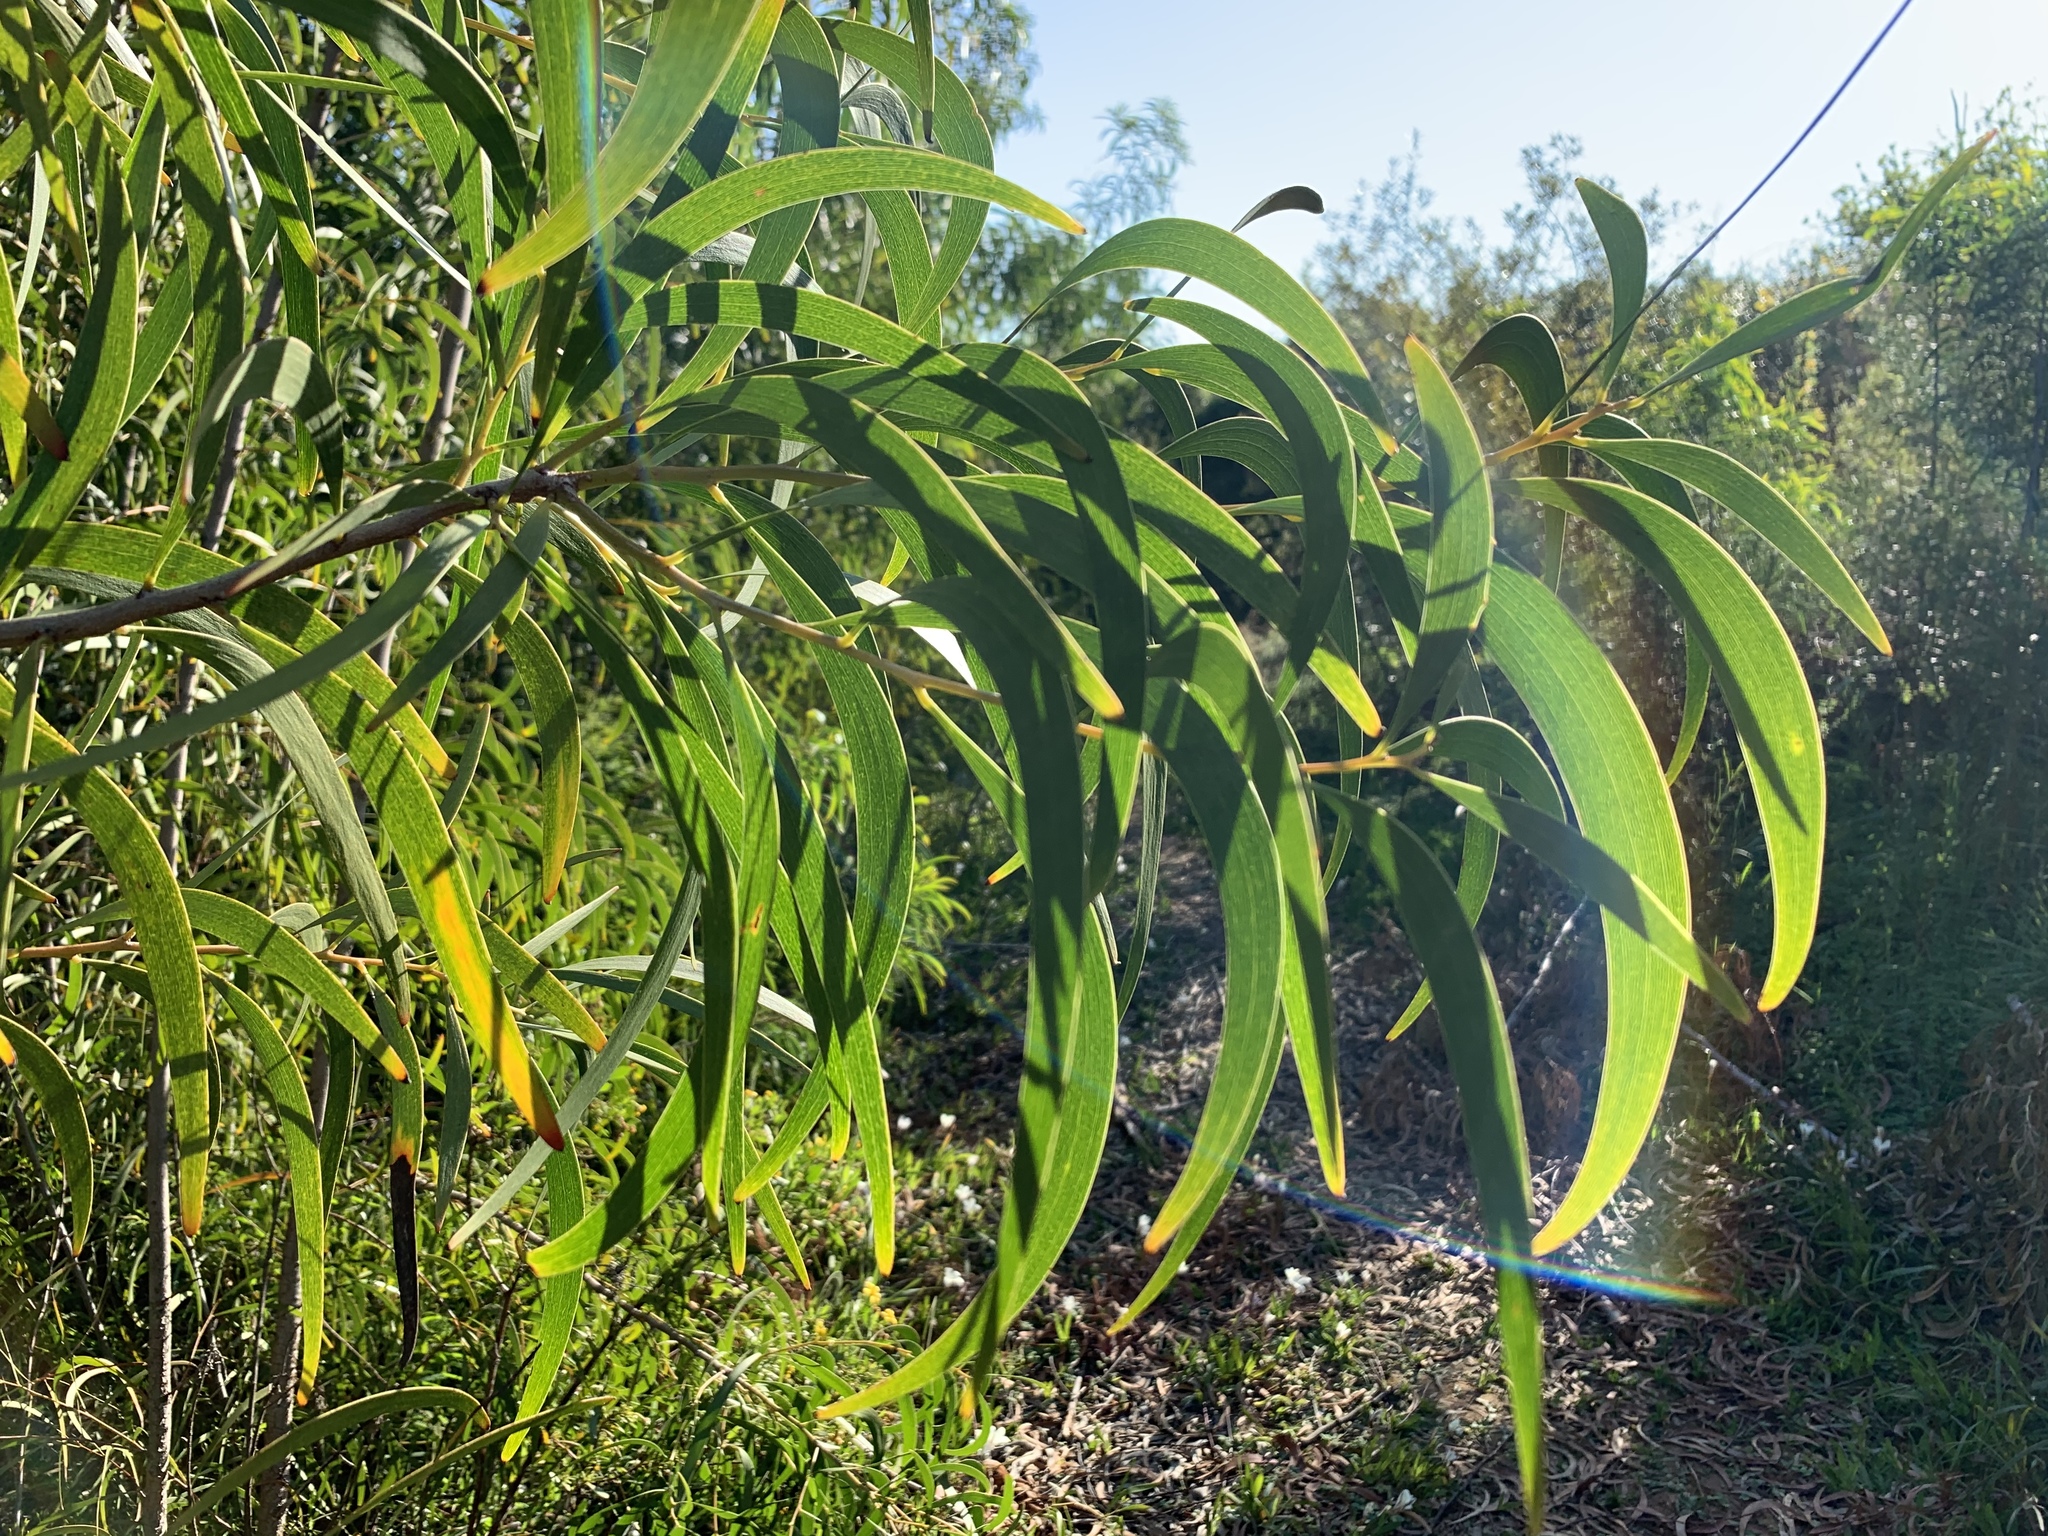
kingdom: Plantae
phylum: Tracheophyta
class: Magnoliopsida
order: Fabales
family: Fabaceae
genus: Acacia
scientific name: Acacia implexa
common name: Black wattle
